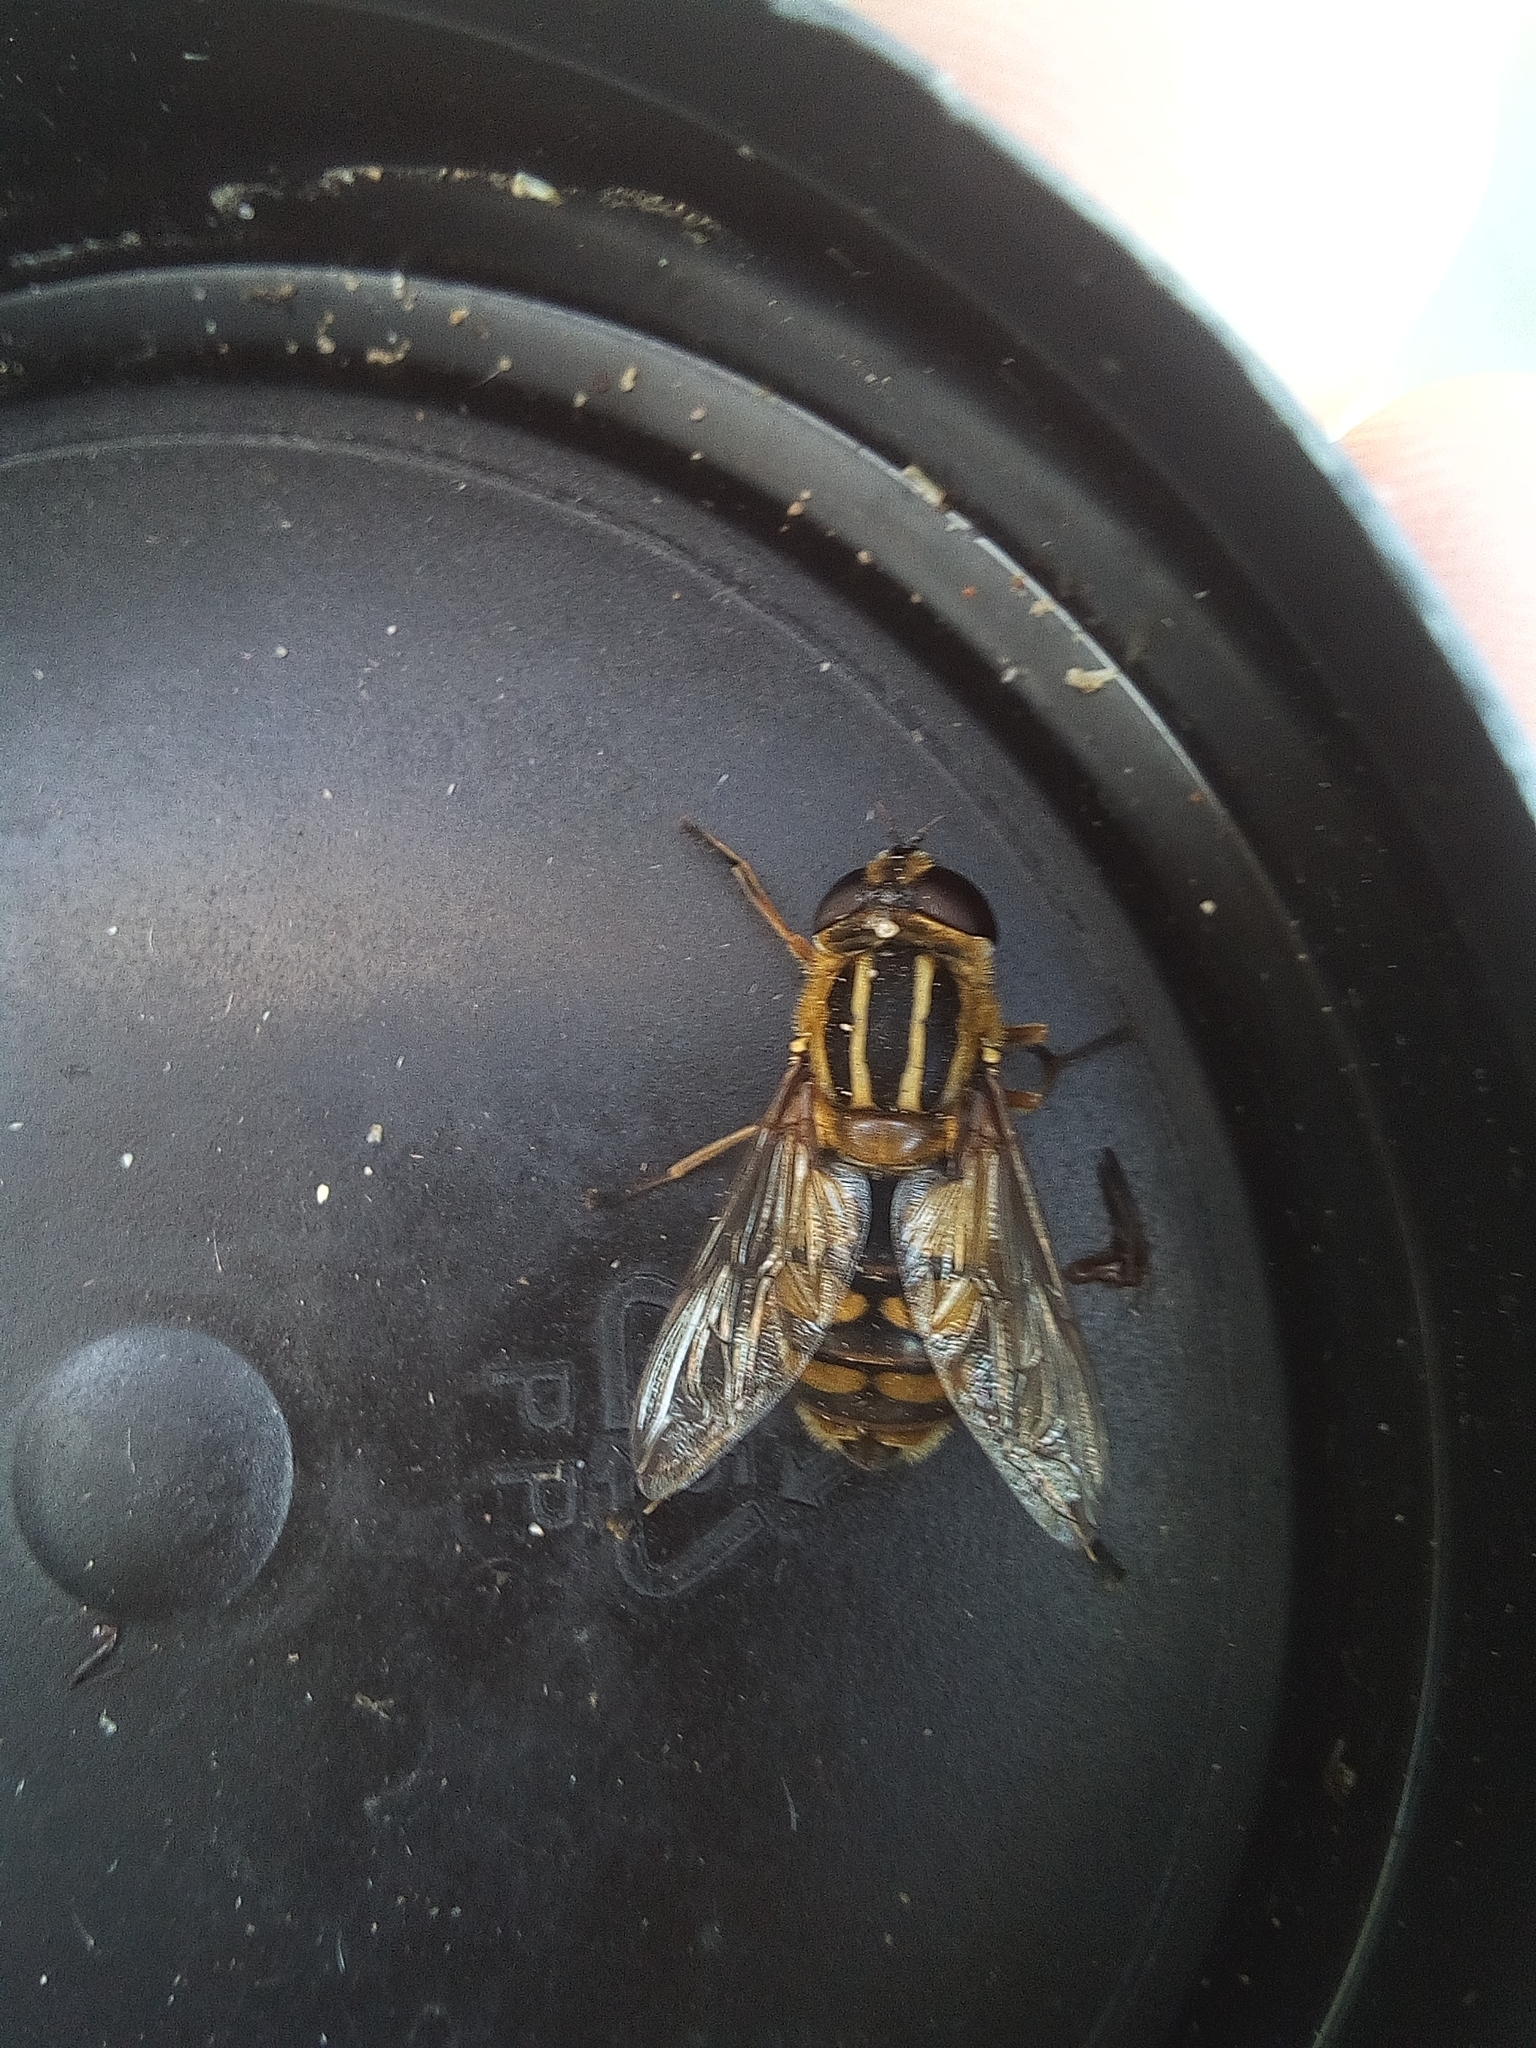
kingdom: Animalia
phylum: Arthropoda
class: Insecta
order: Diptera
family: Syrphidae
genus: Helophilus
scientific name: Helophilus hybridus
